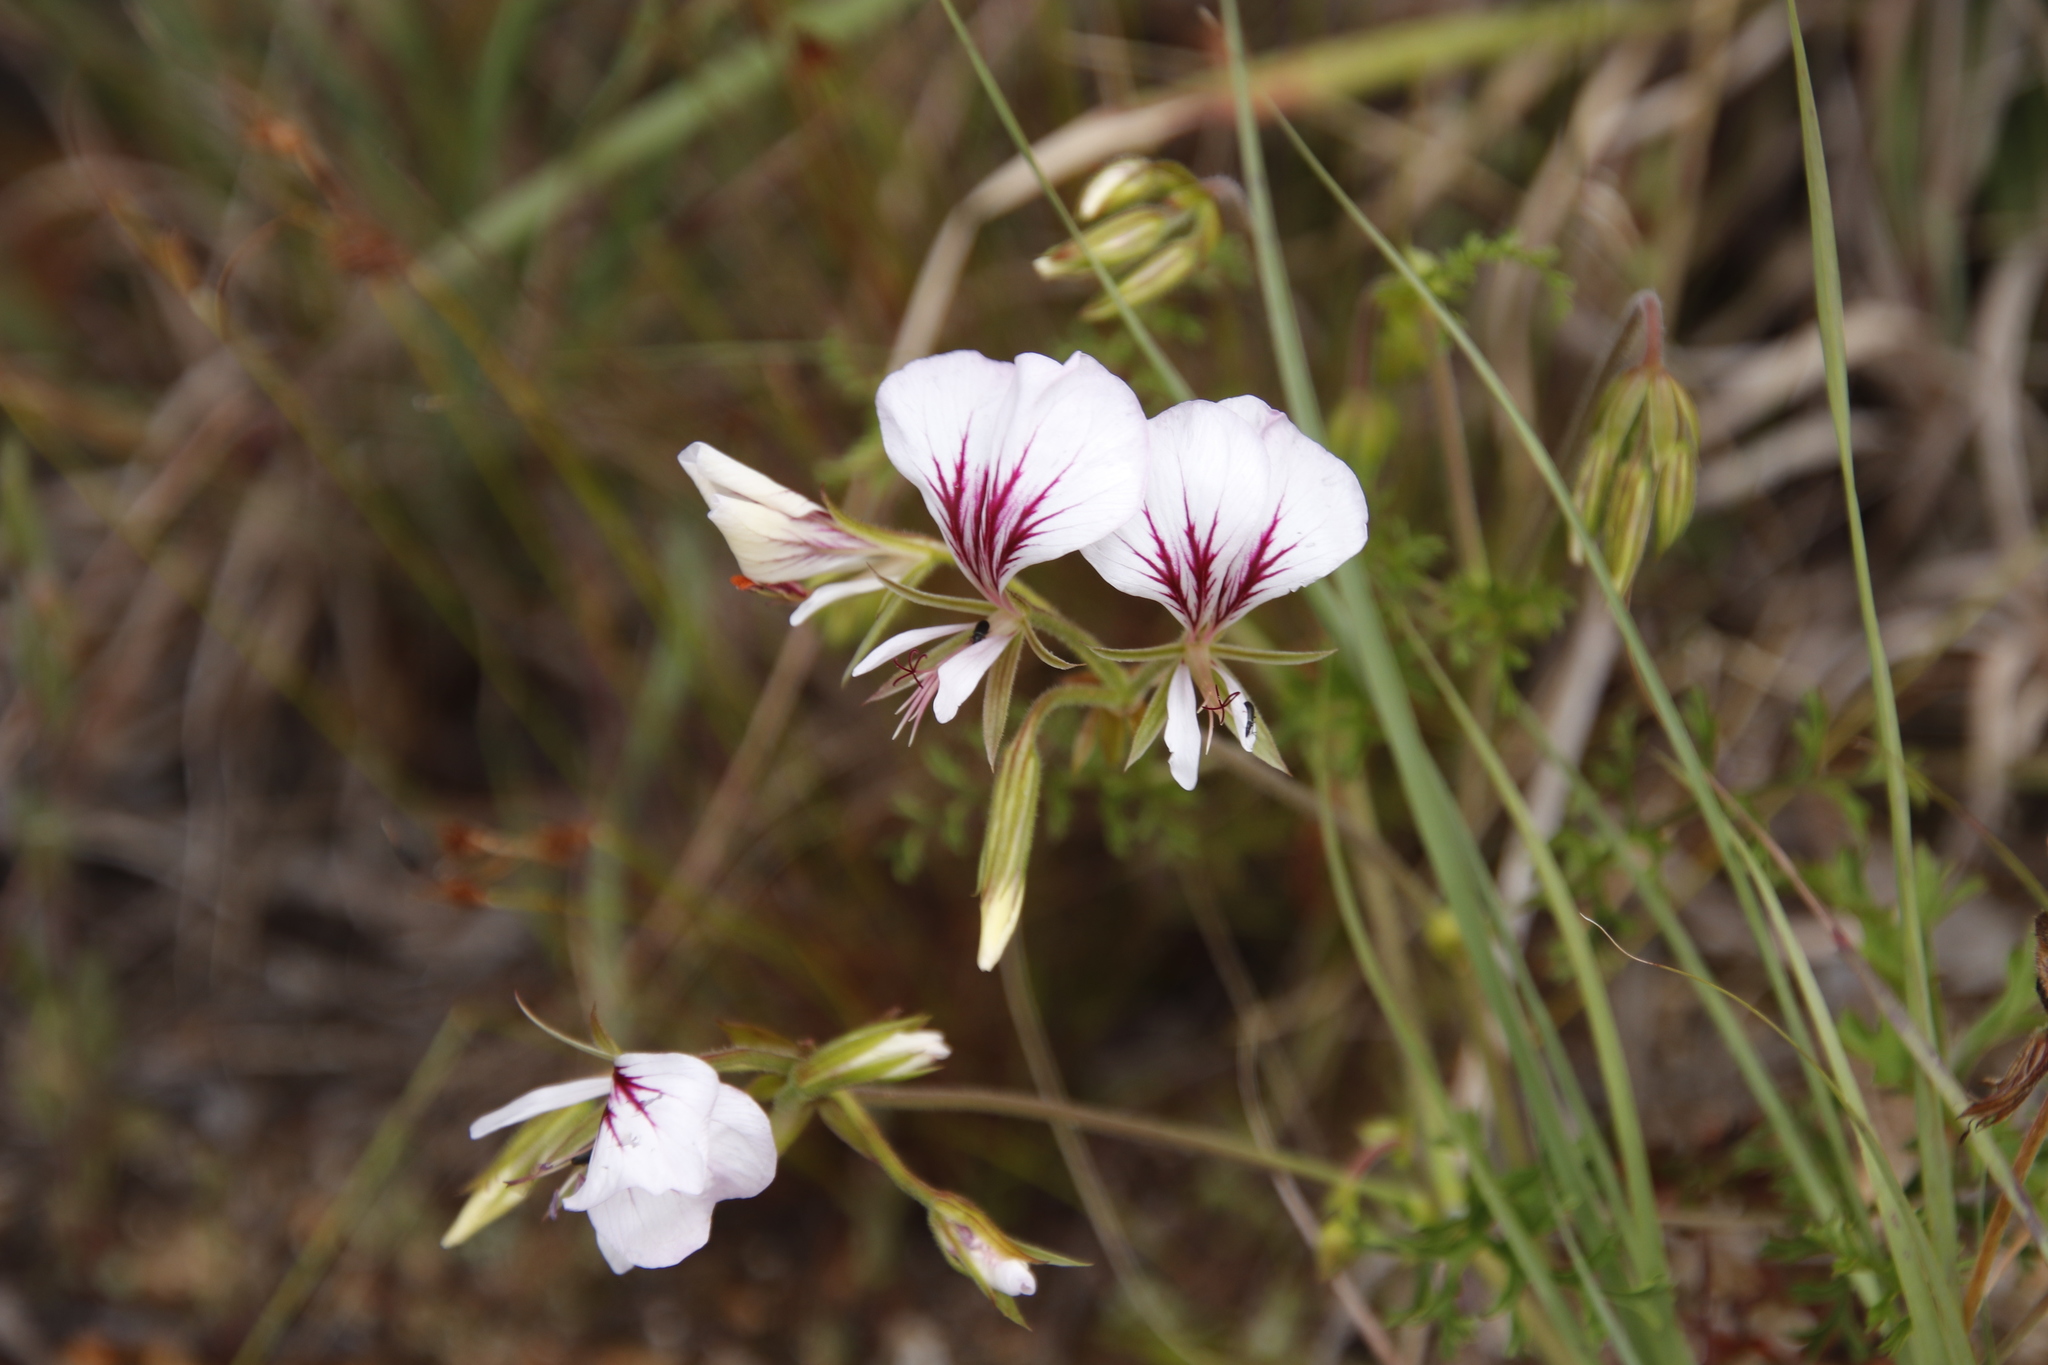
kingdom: Plantae
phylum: Tracheophyta
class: Magnoliopsida
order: Geraniales
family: Geraniaceae
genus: Pelargonium
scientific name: Pelargonium longicaule
